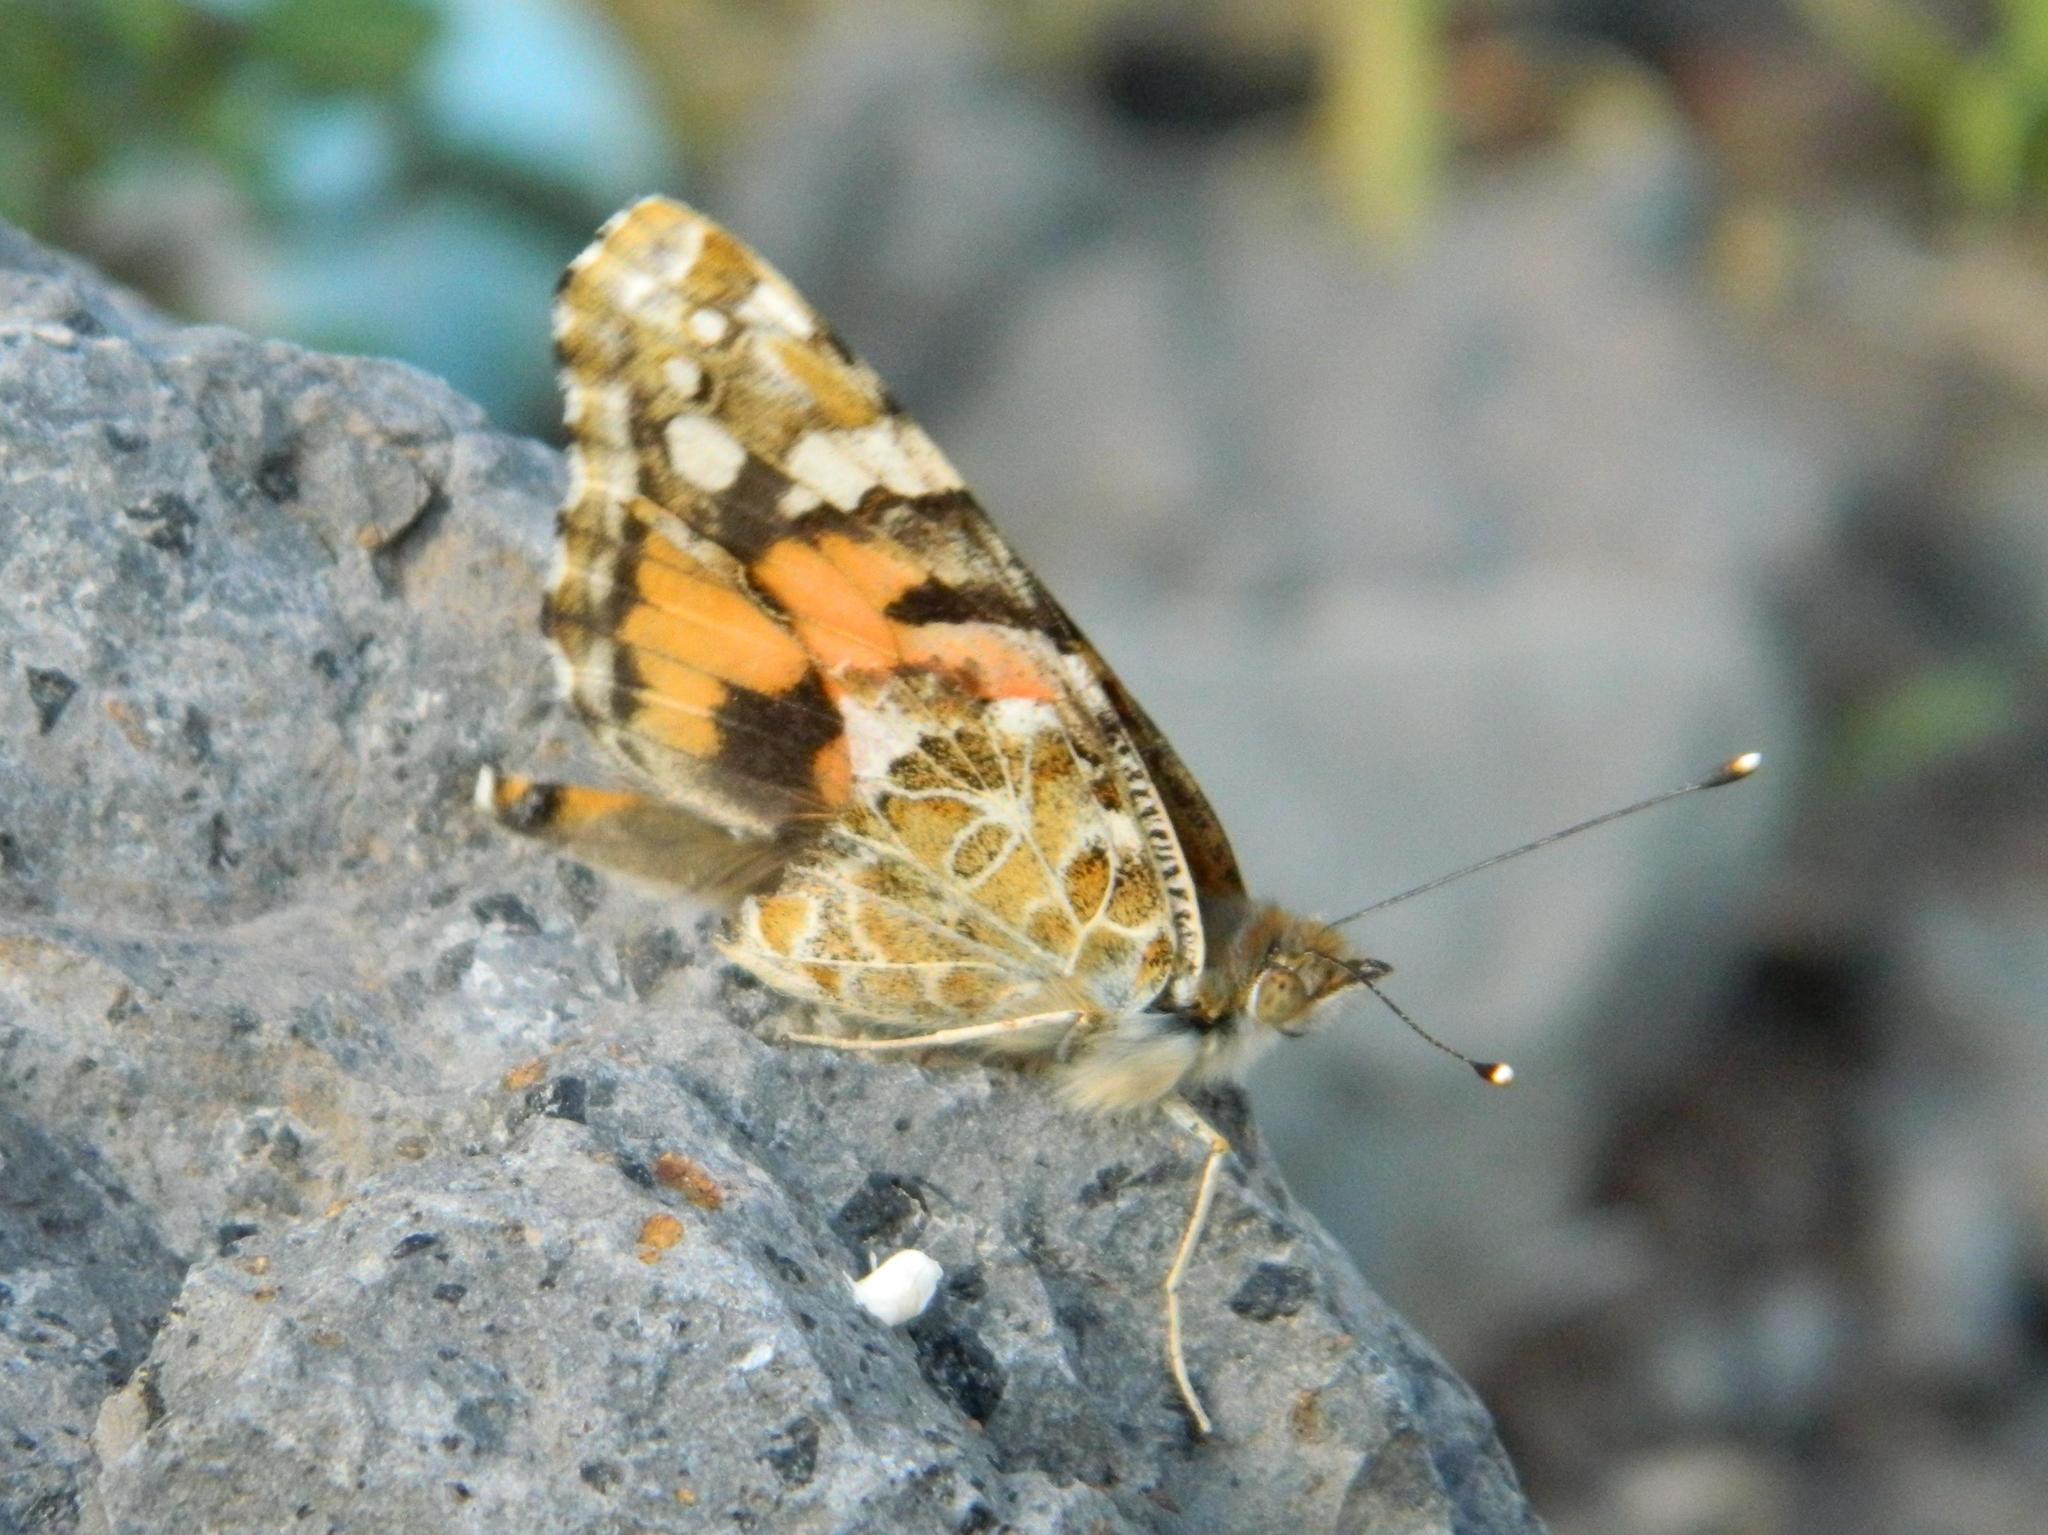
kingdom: Animalia
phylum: Arthropoda
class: Insecta
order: Lepidoptera
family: Nymphalidae
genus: Vanessa
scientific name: Vanessa cardui
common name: Painted lady
